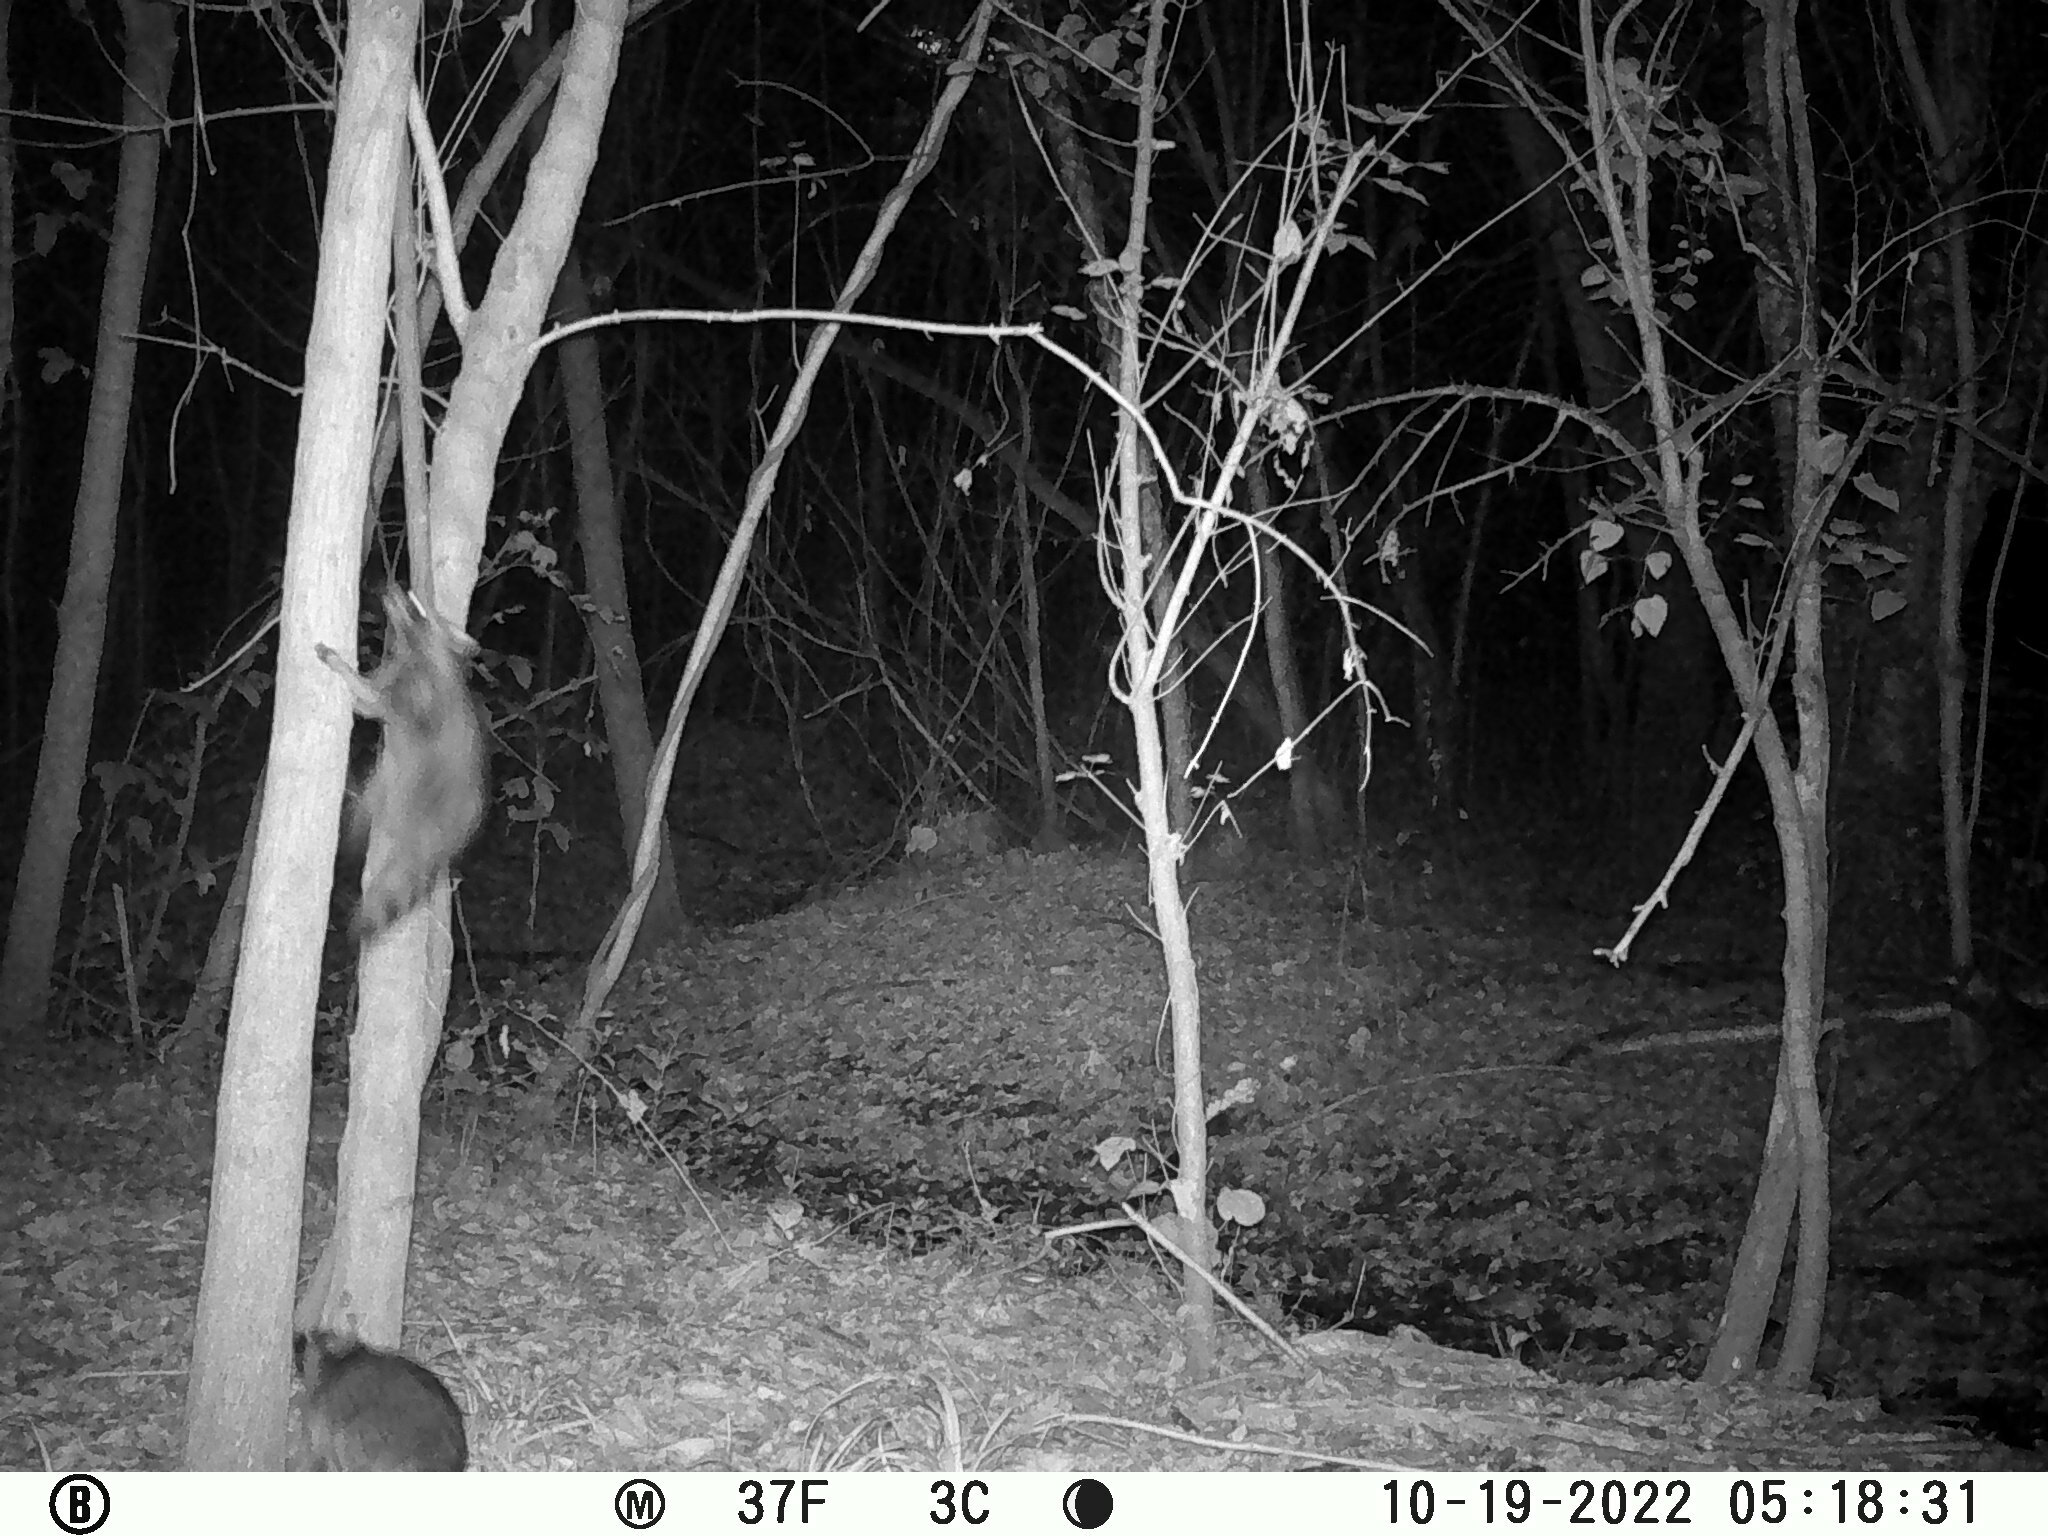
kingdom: Animalia
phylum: Chordata
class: Mammalia
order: Carnivora
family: Procyonidae
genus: Procyon
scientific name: Procyon lotor
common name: Raccoon
